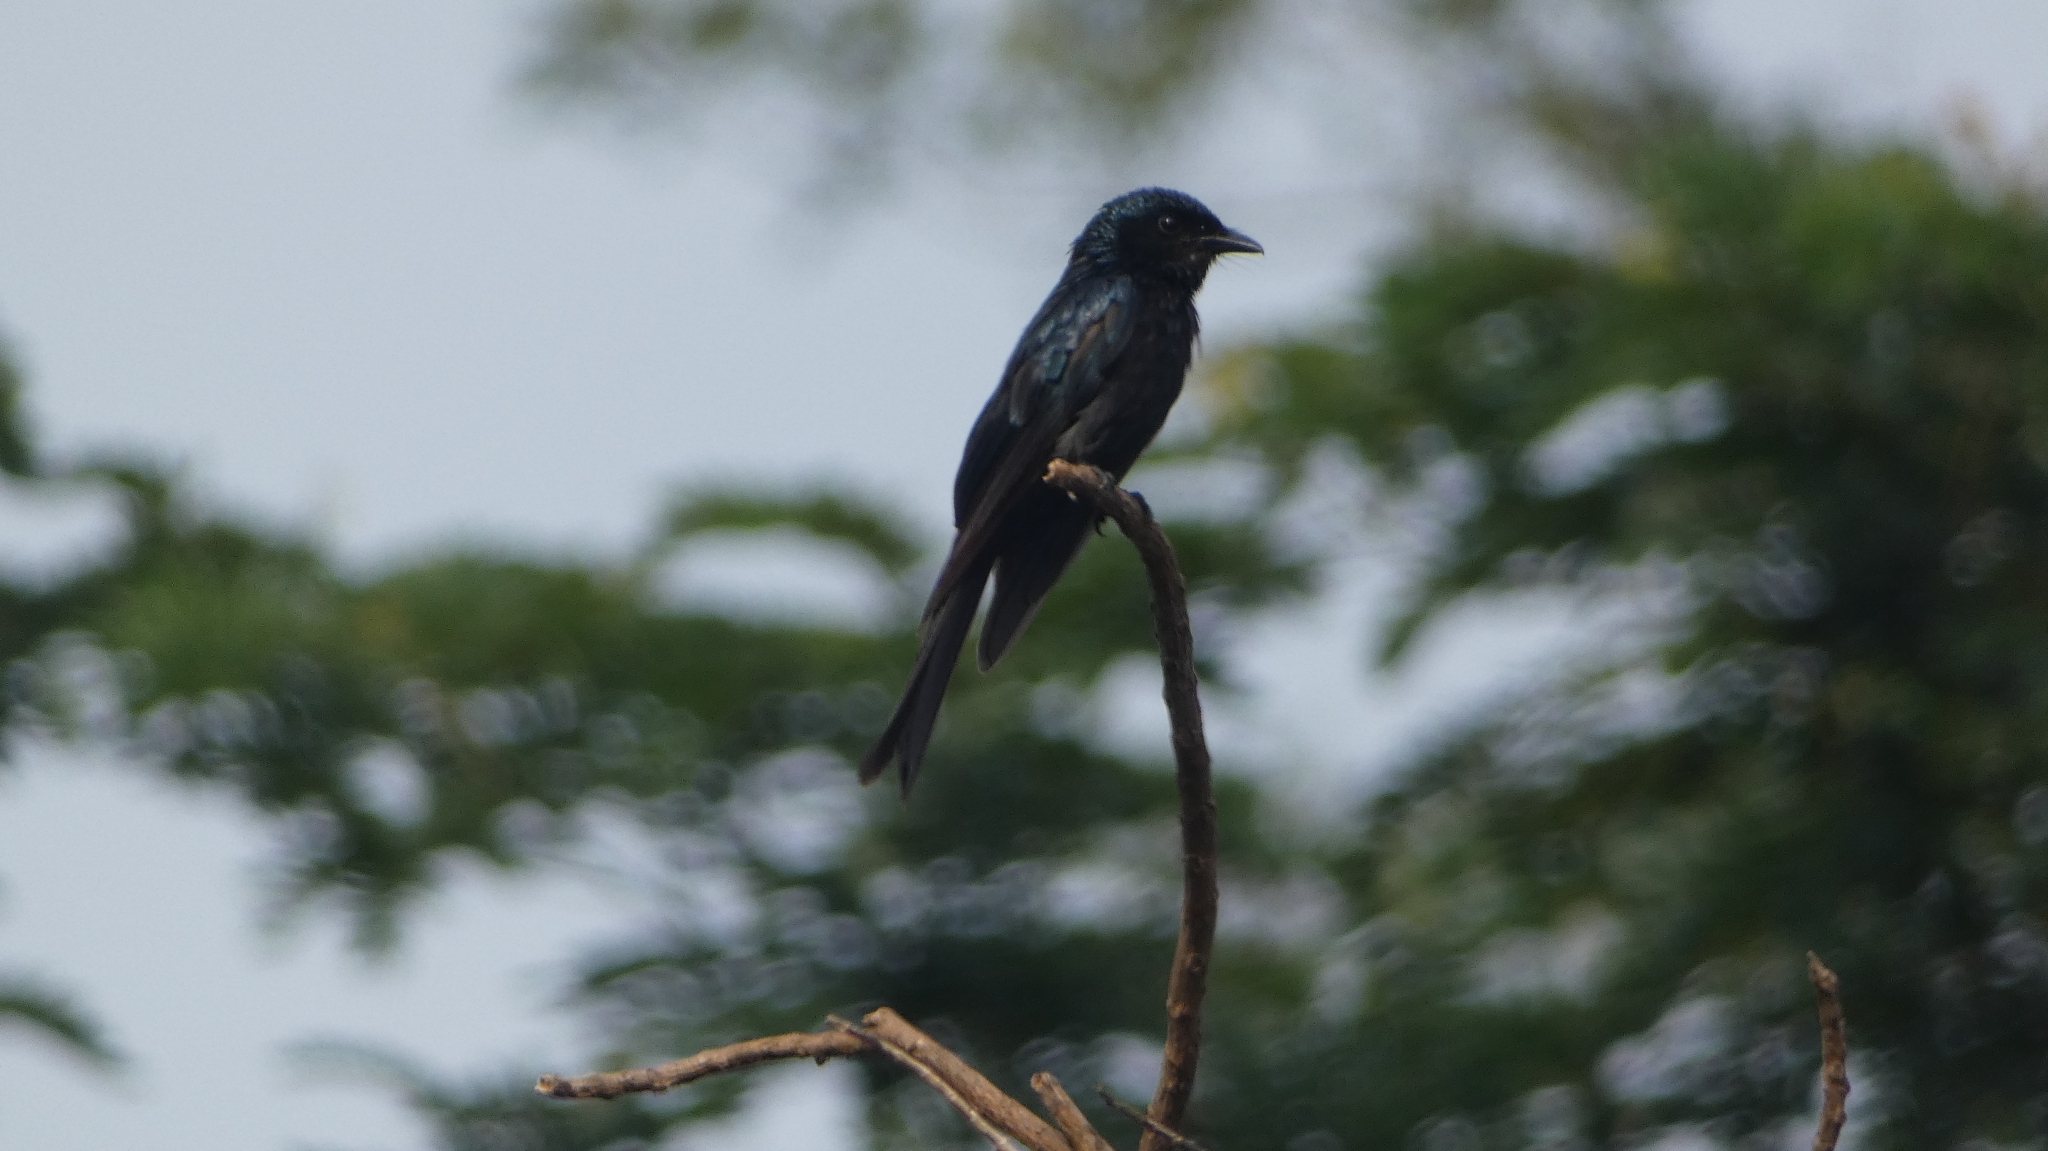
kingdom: Animalia
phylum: Chordata
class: Aves
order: Passeriformes
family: Dicruridae
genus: Dicrurus
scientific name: Dicrurus aeneus
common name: Bronzed drongo
